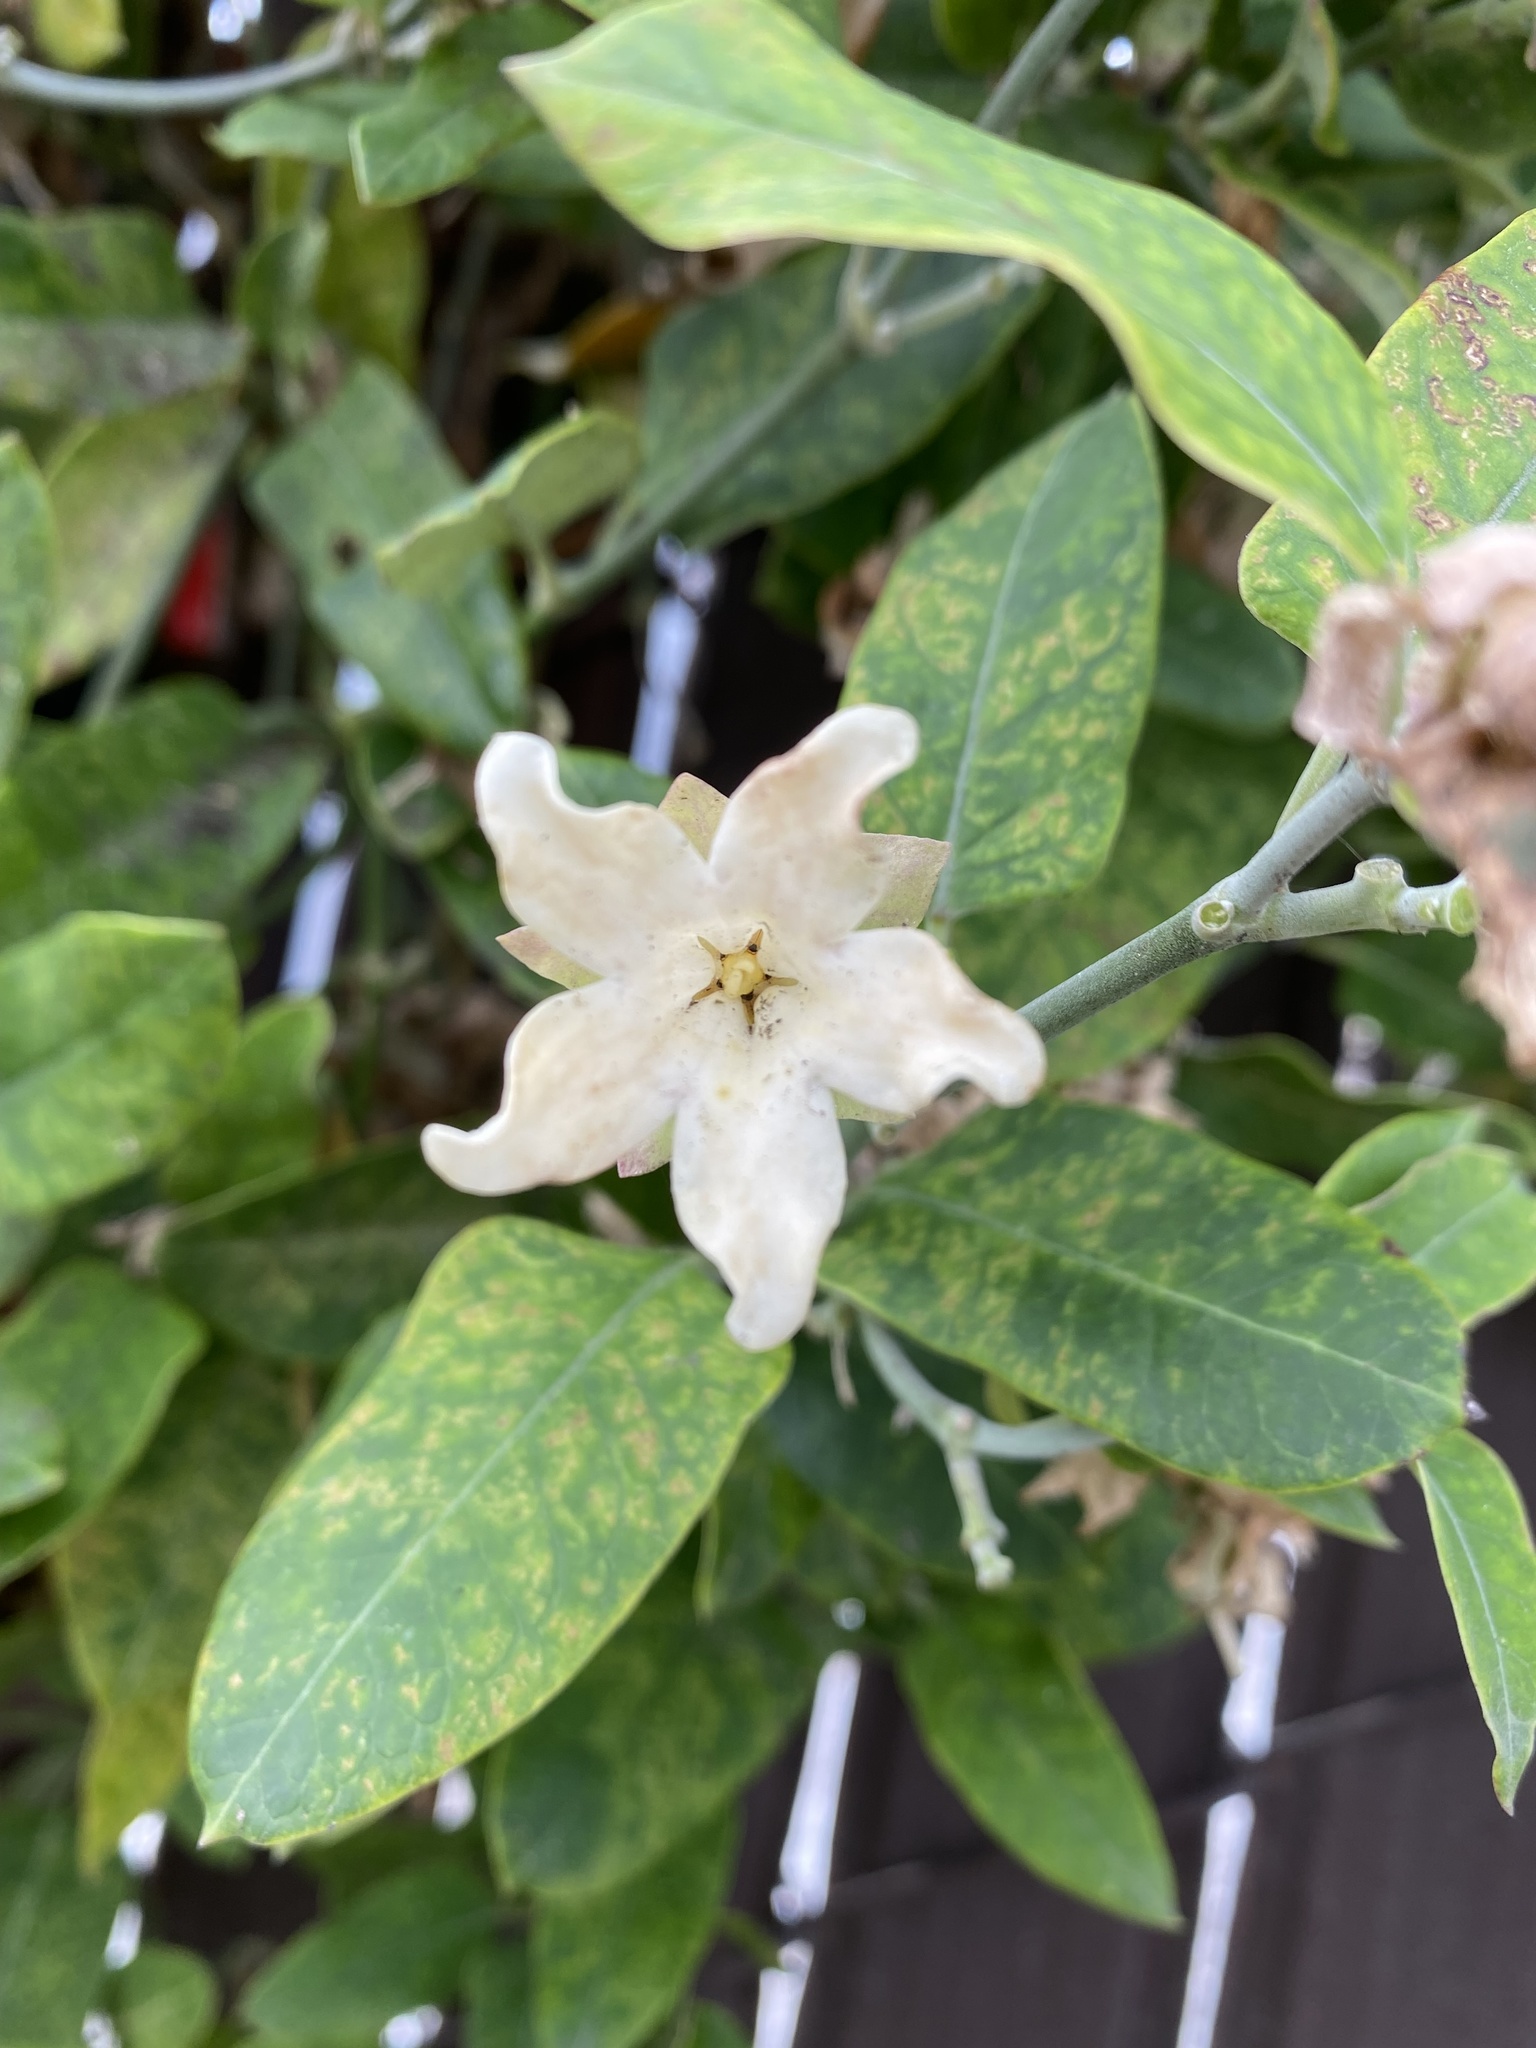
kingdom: Plantae
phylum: Tracheophyta
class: Magnoliopsida
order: Gentianales
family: Apocynaceae
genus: Araujia
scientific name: Araujia sericifera
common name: White bladderflower
